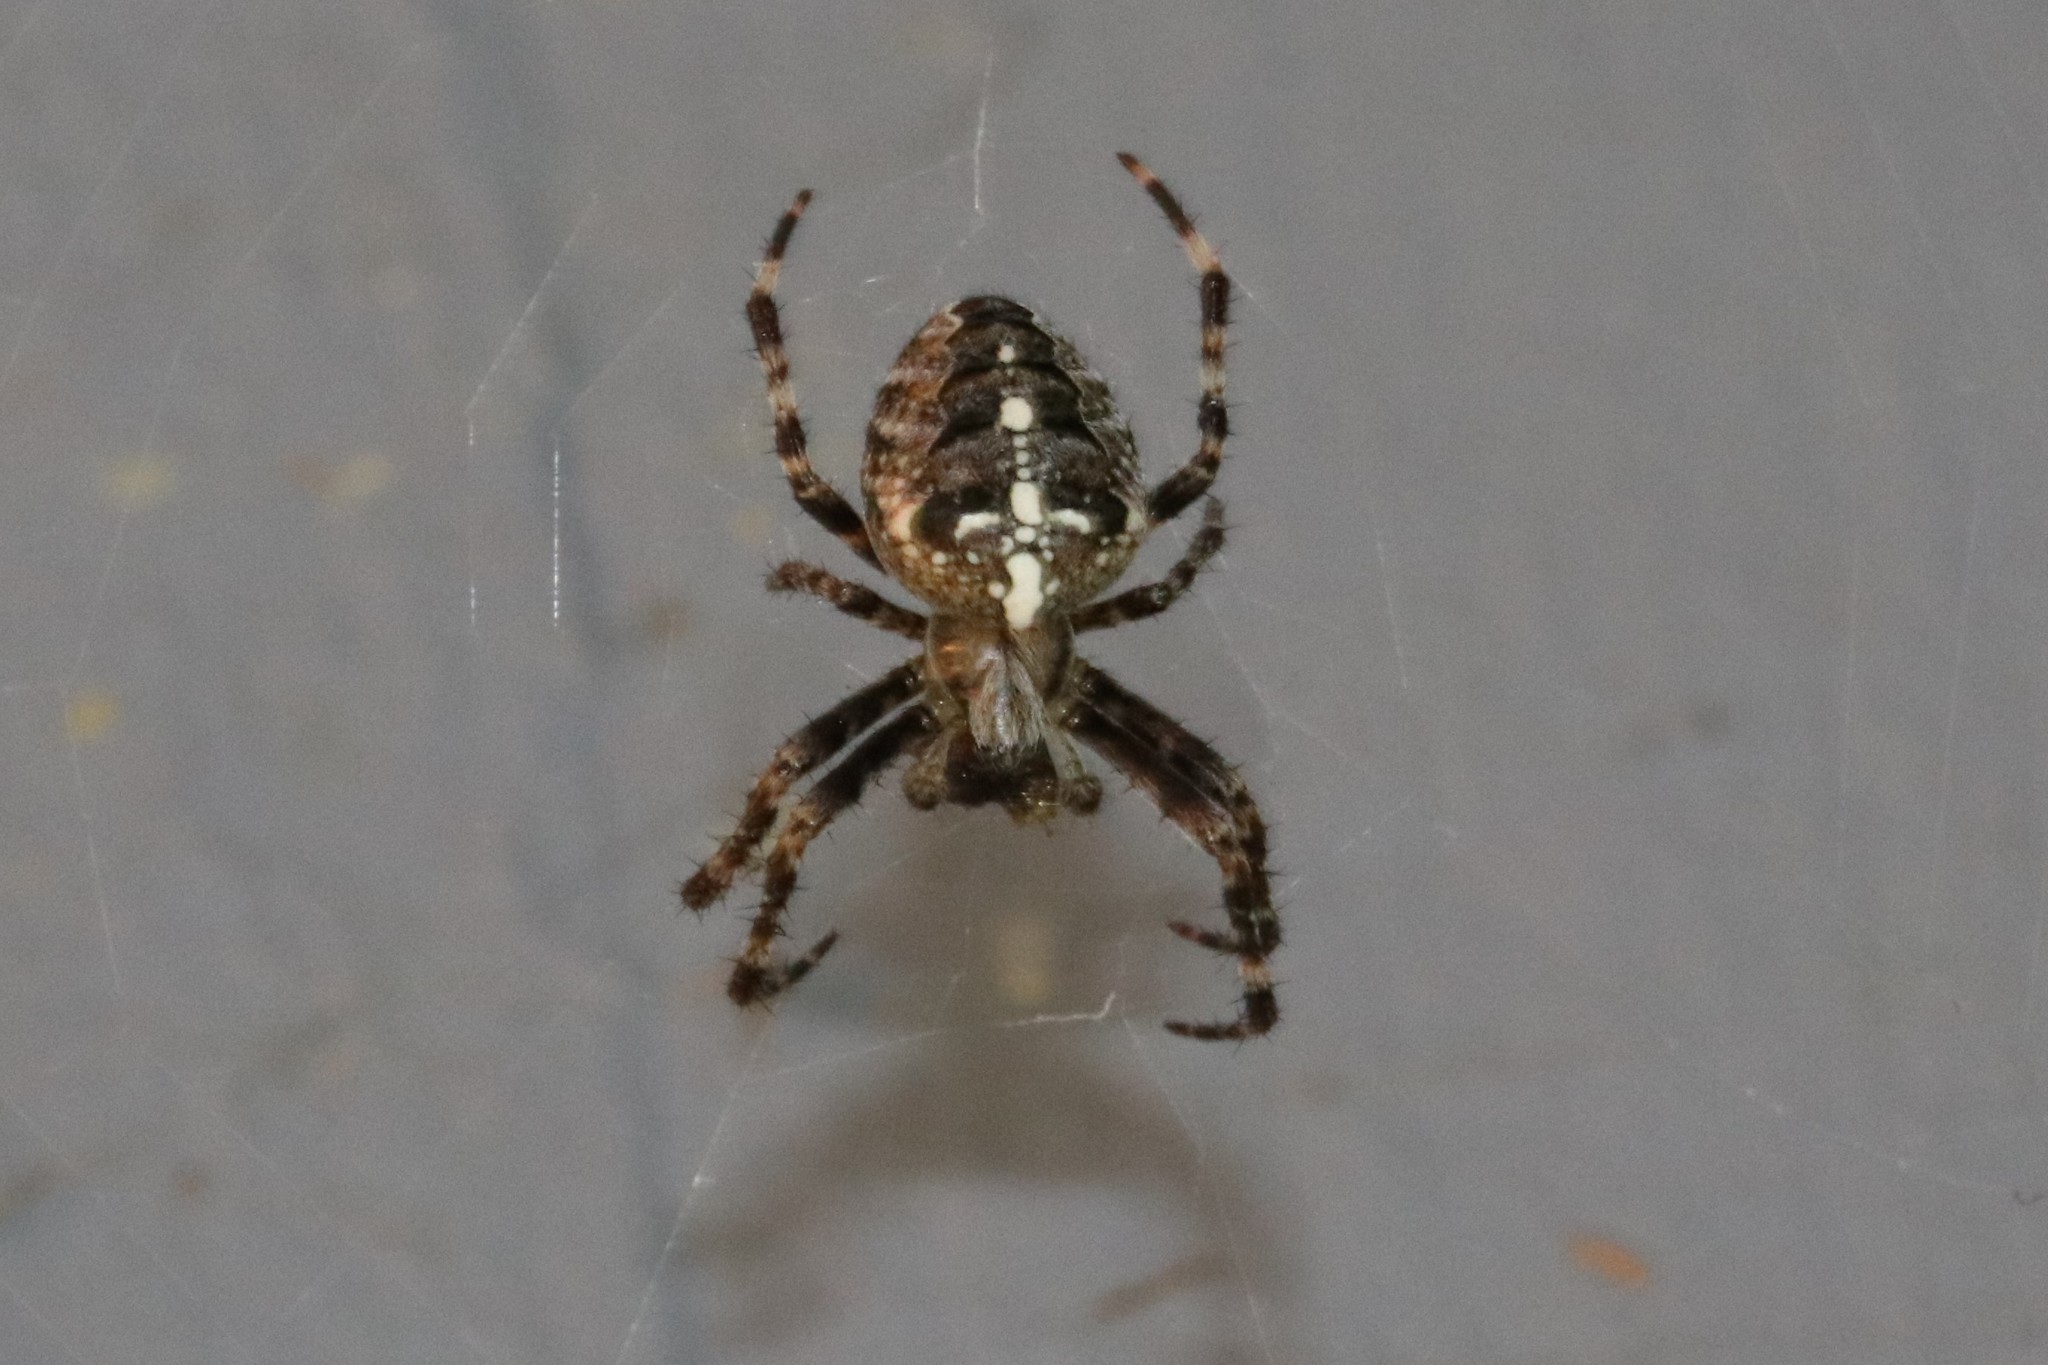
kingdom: Animalia
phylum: Arthropoda
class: Arachnida
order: Araneae
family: Araneidae
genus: Araneus
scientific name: Araneus diadematus
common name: Cross orbweaver
